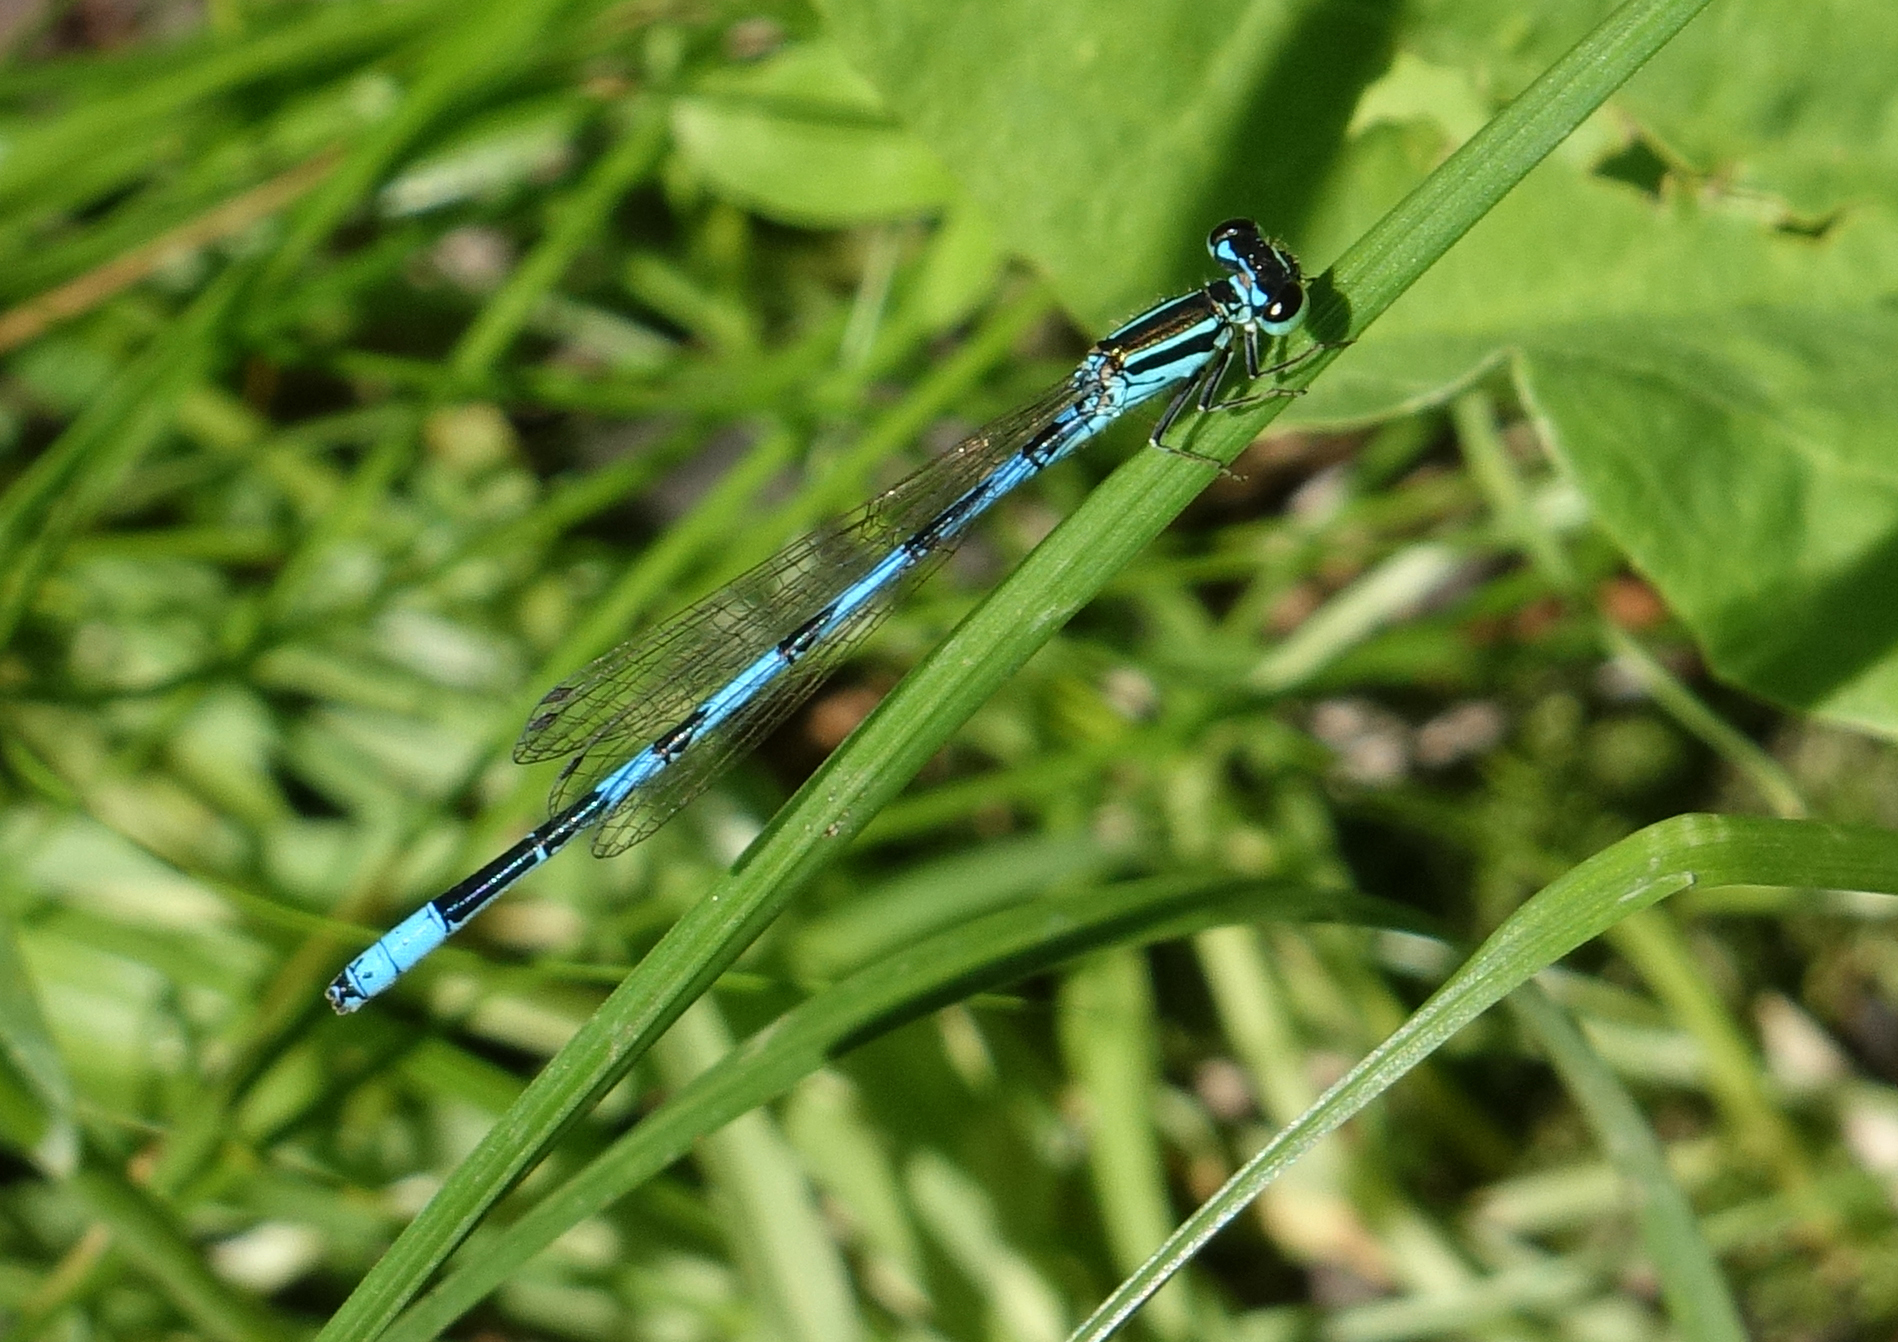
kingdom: Animalia
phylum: Arthropoda
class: Insecta
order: Odonata
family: Coenagrionidae
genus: Coenagrion
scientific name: Coenagrion ecornutum
